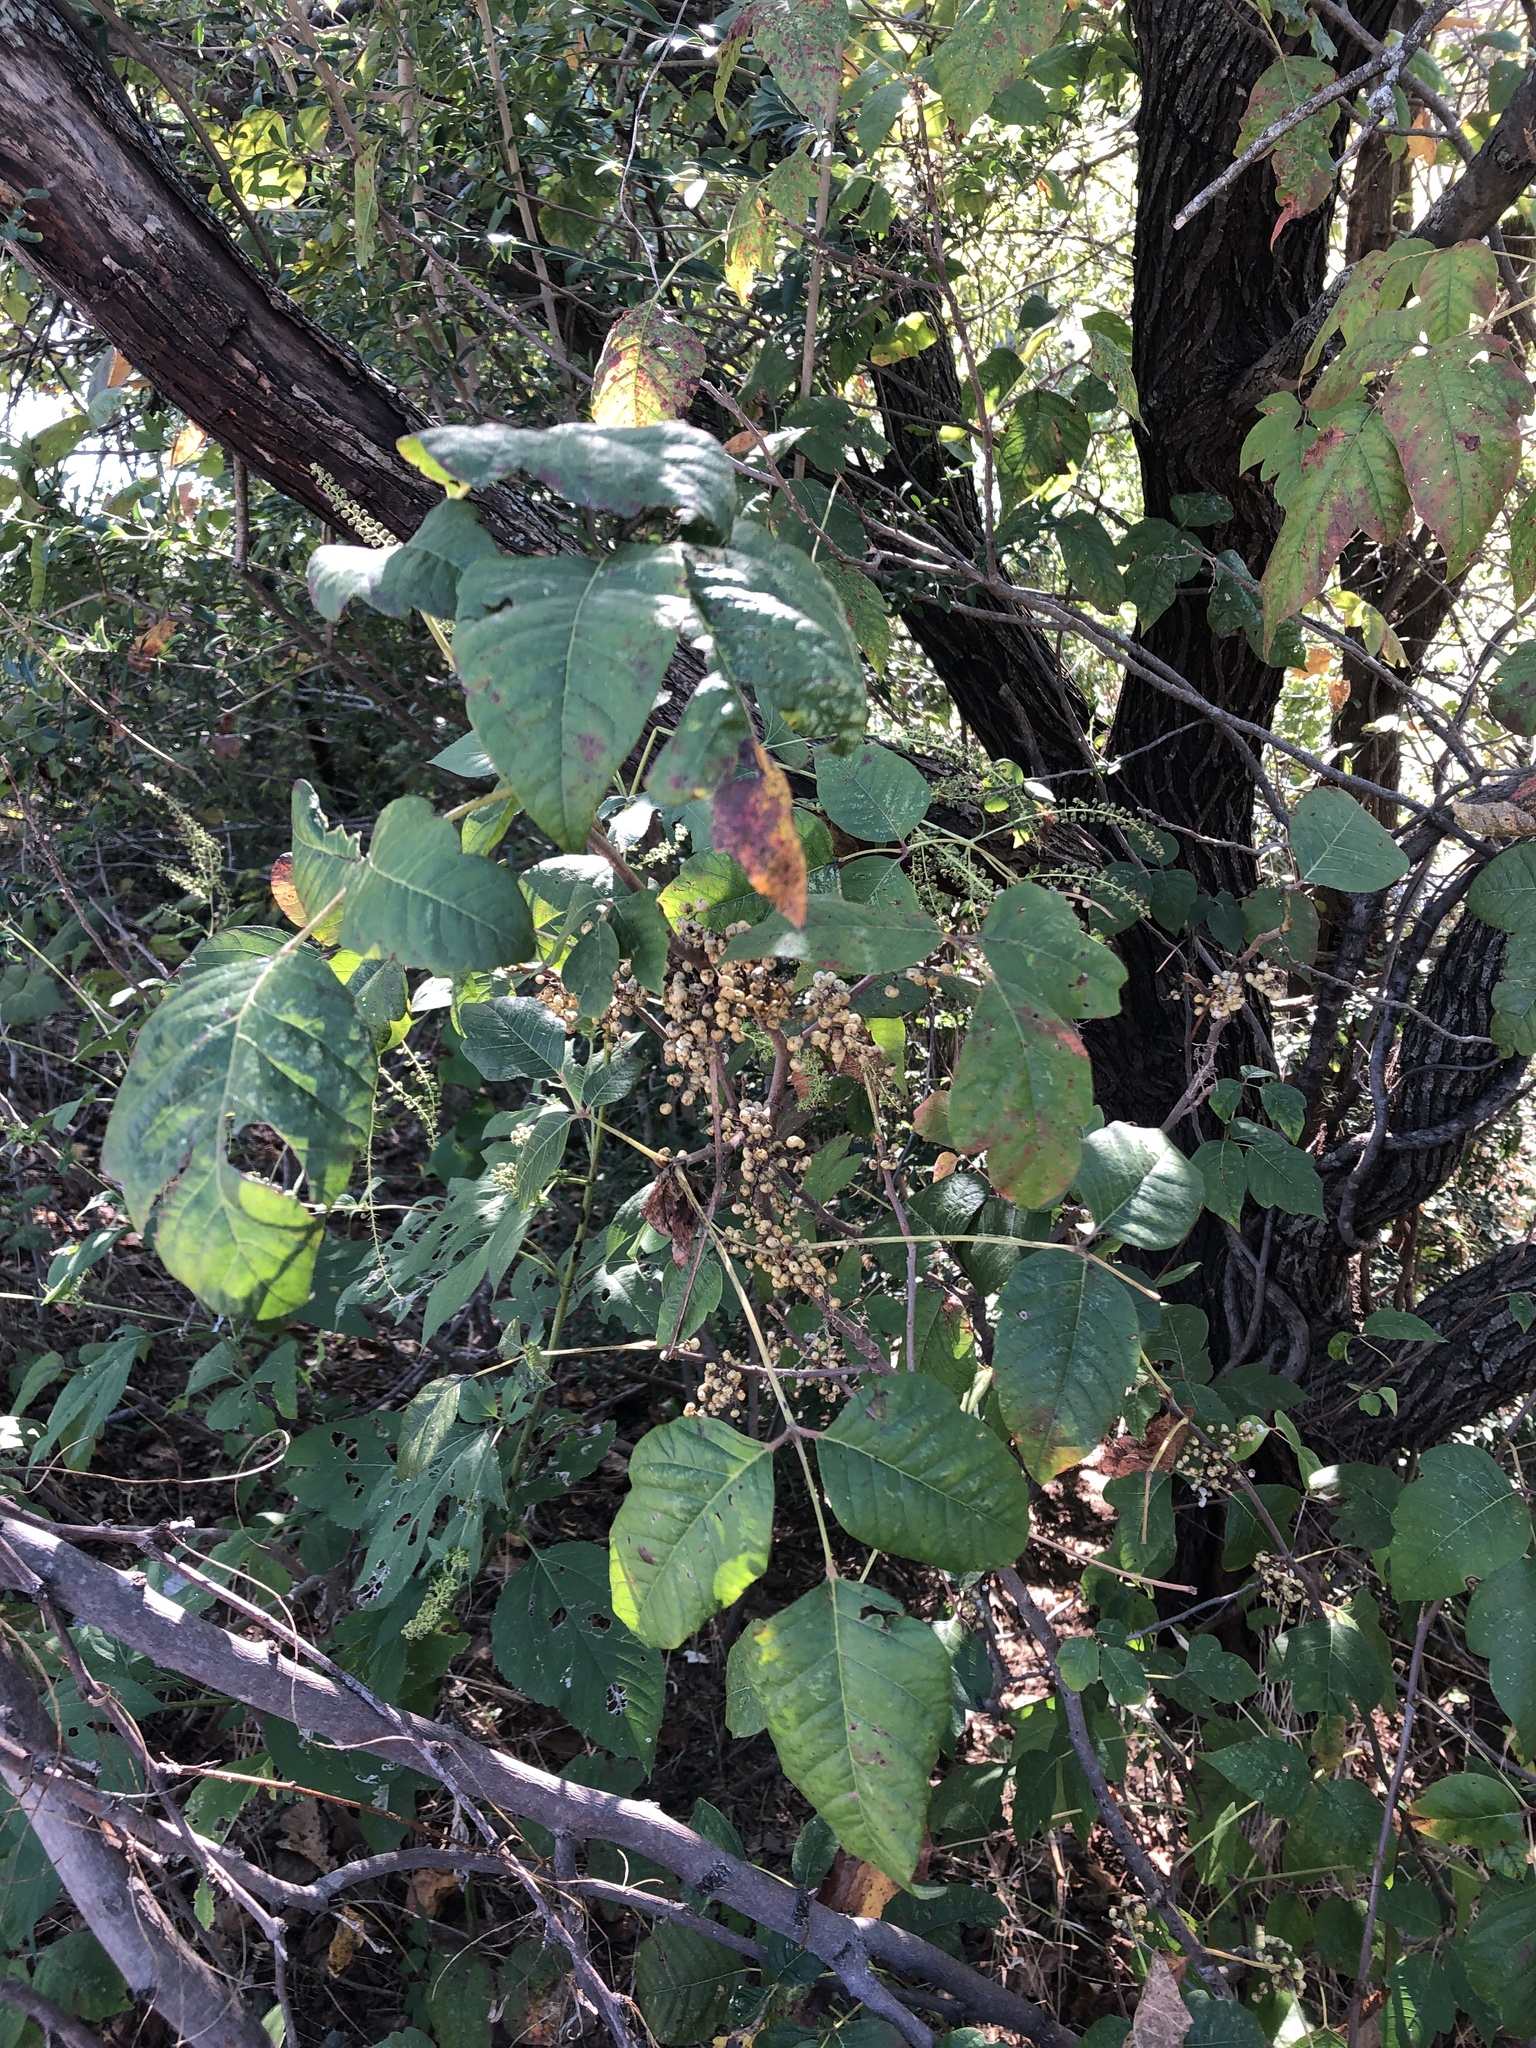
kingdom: Plantae
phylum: Tracheophyta
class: Magnoliopsida
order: Sapindales
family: Anacardiaceae
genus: Toxicodendron
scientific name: Toxicodendron radicans
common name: Poison ivy
